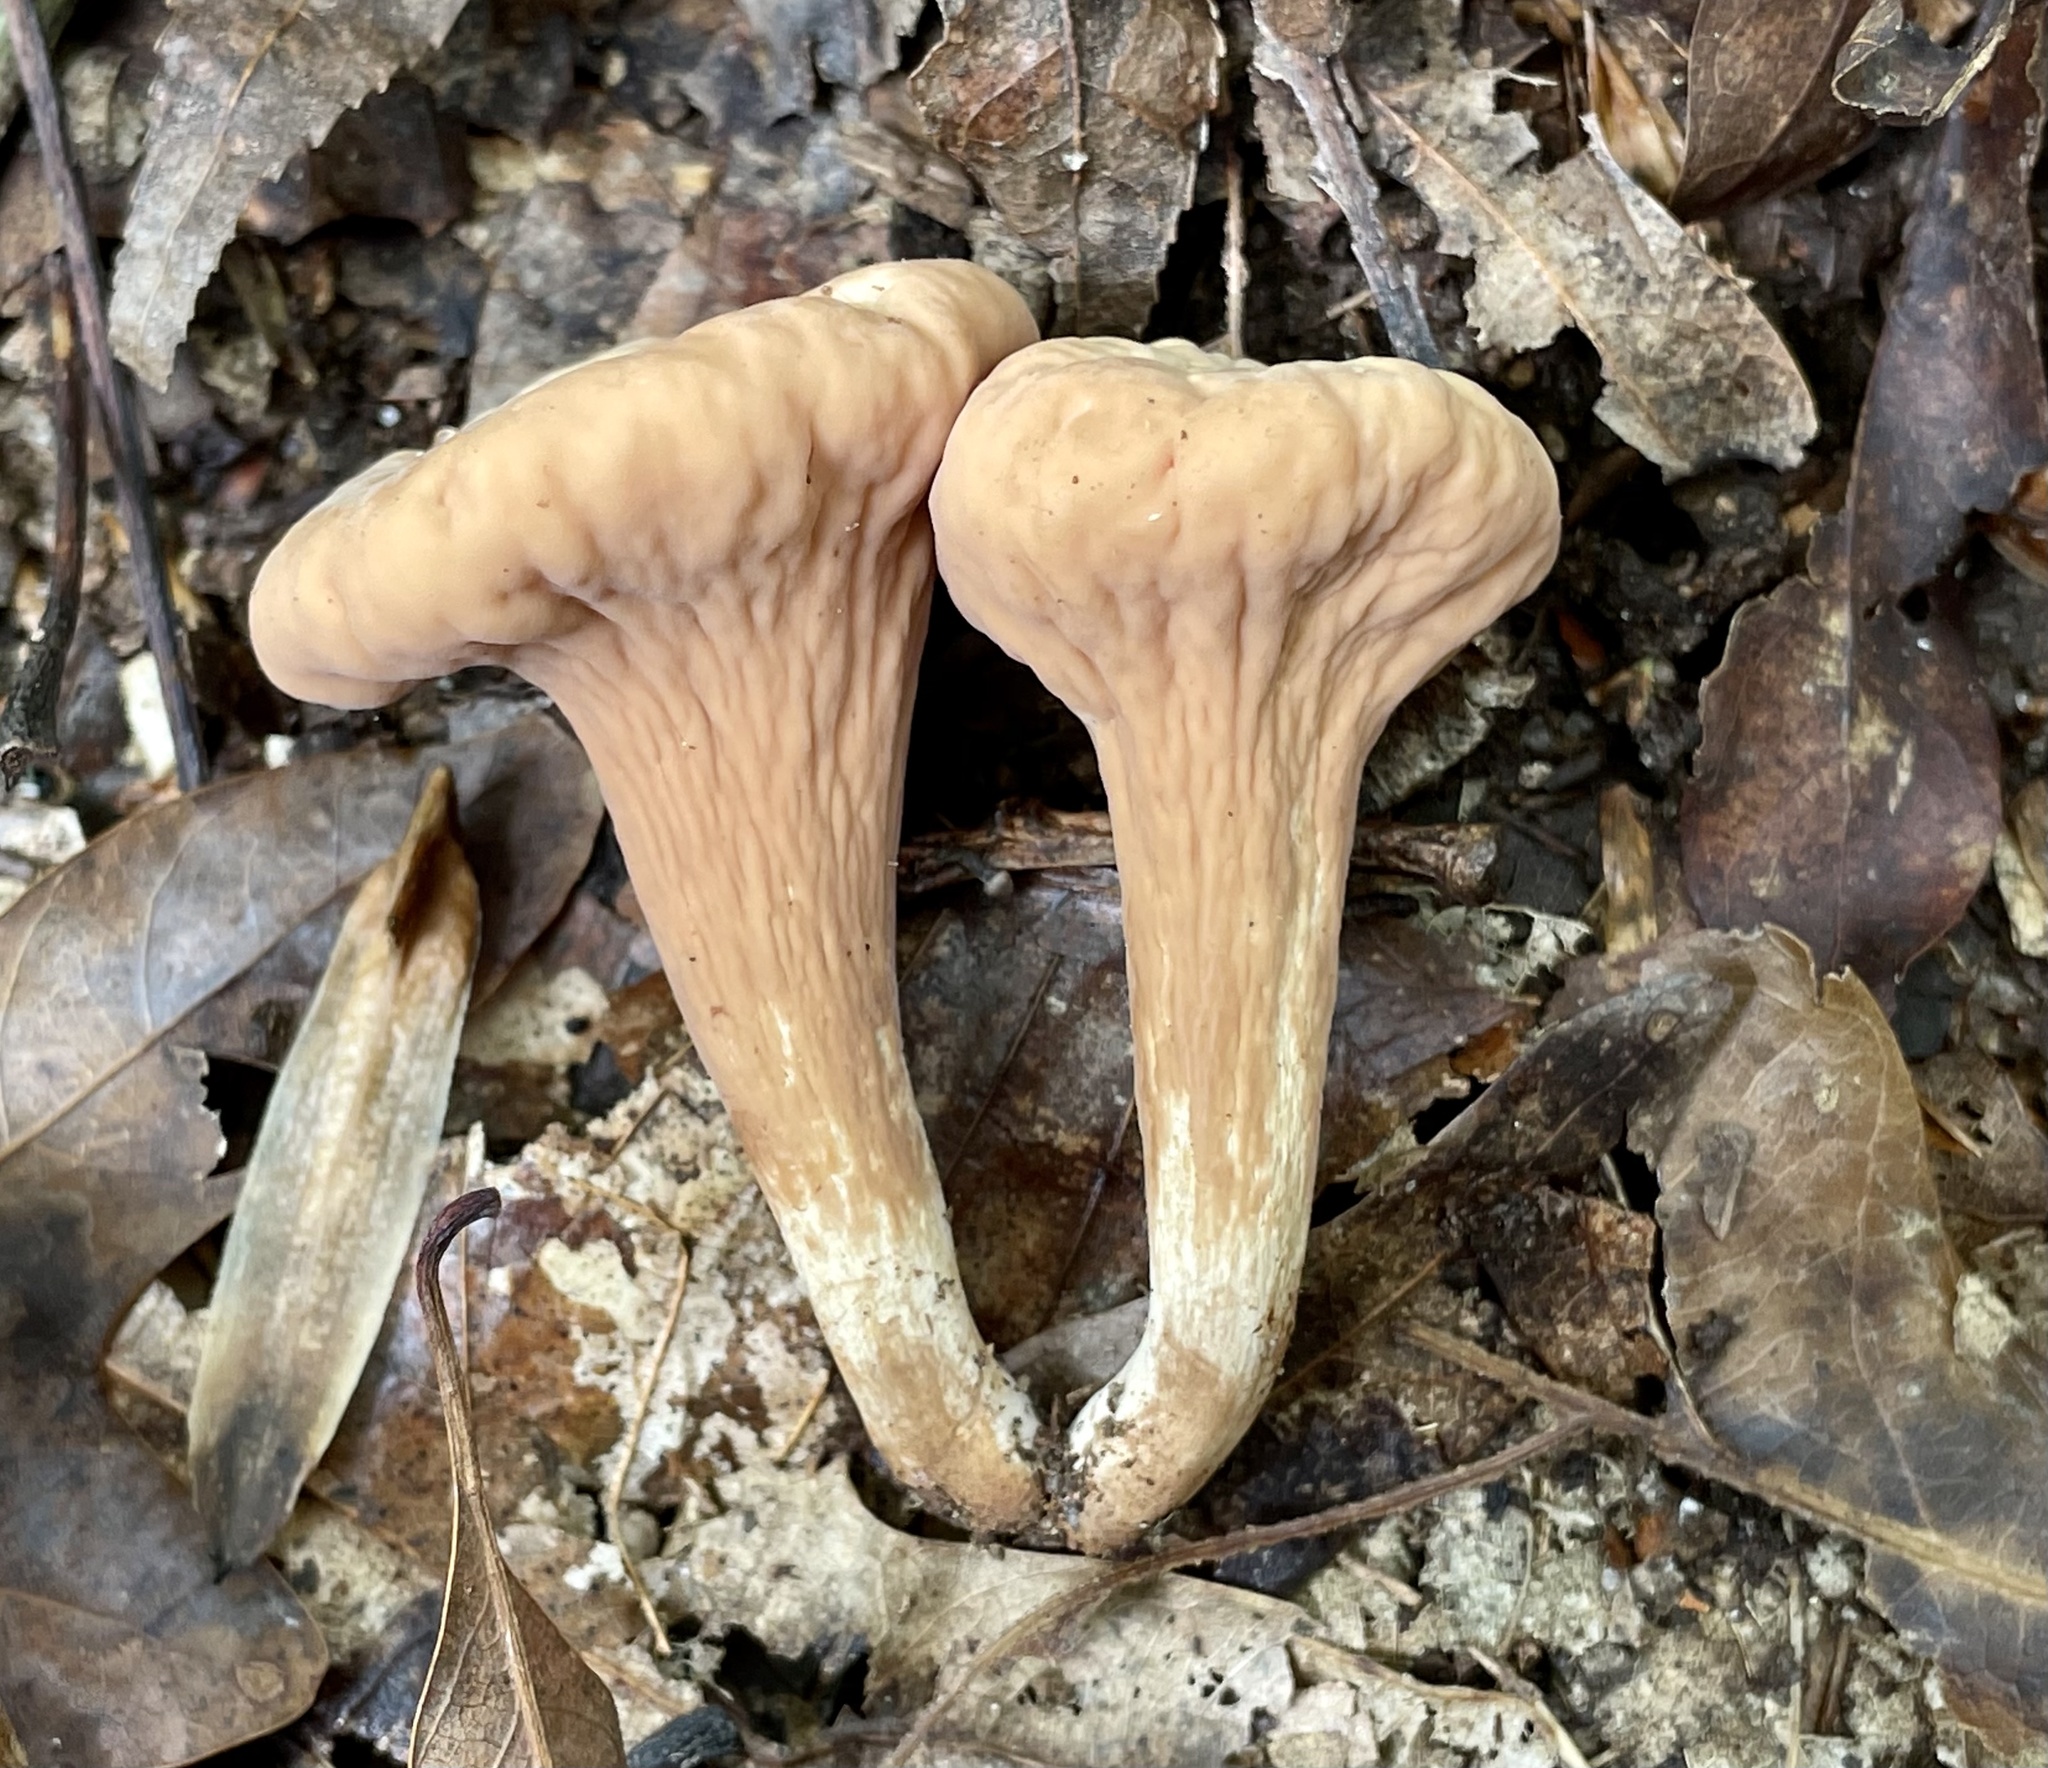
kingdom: Fungi
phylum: Basidiomycota
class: Agaricomycetes
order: Gomphales
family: Clavariadelphaceae
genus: Clavariadelphus
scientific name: Clavariadelphus americanus
